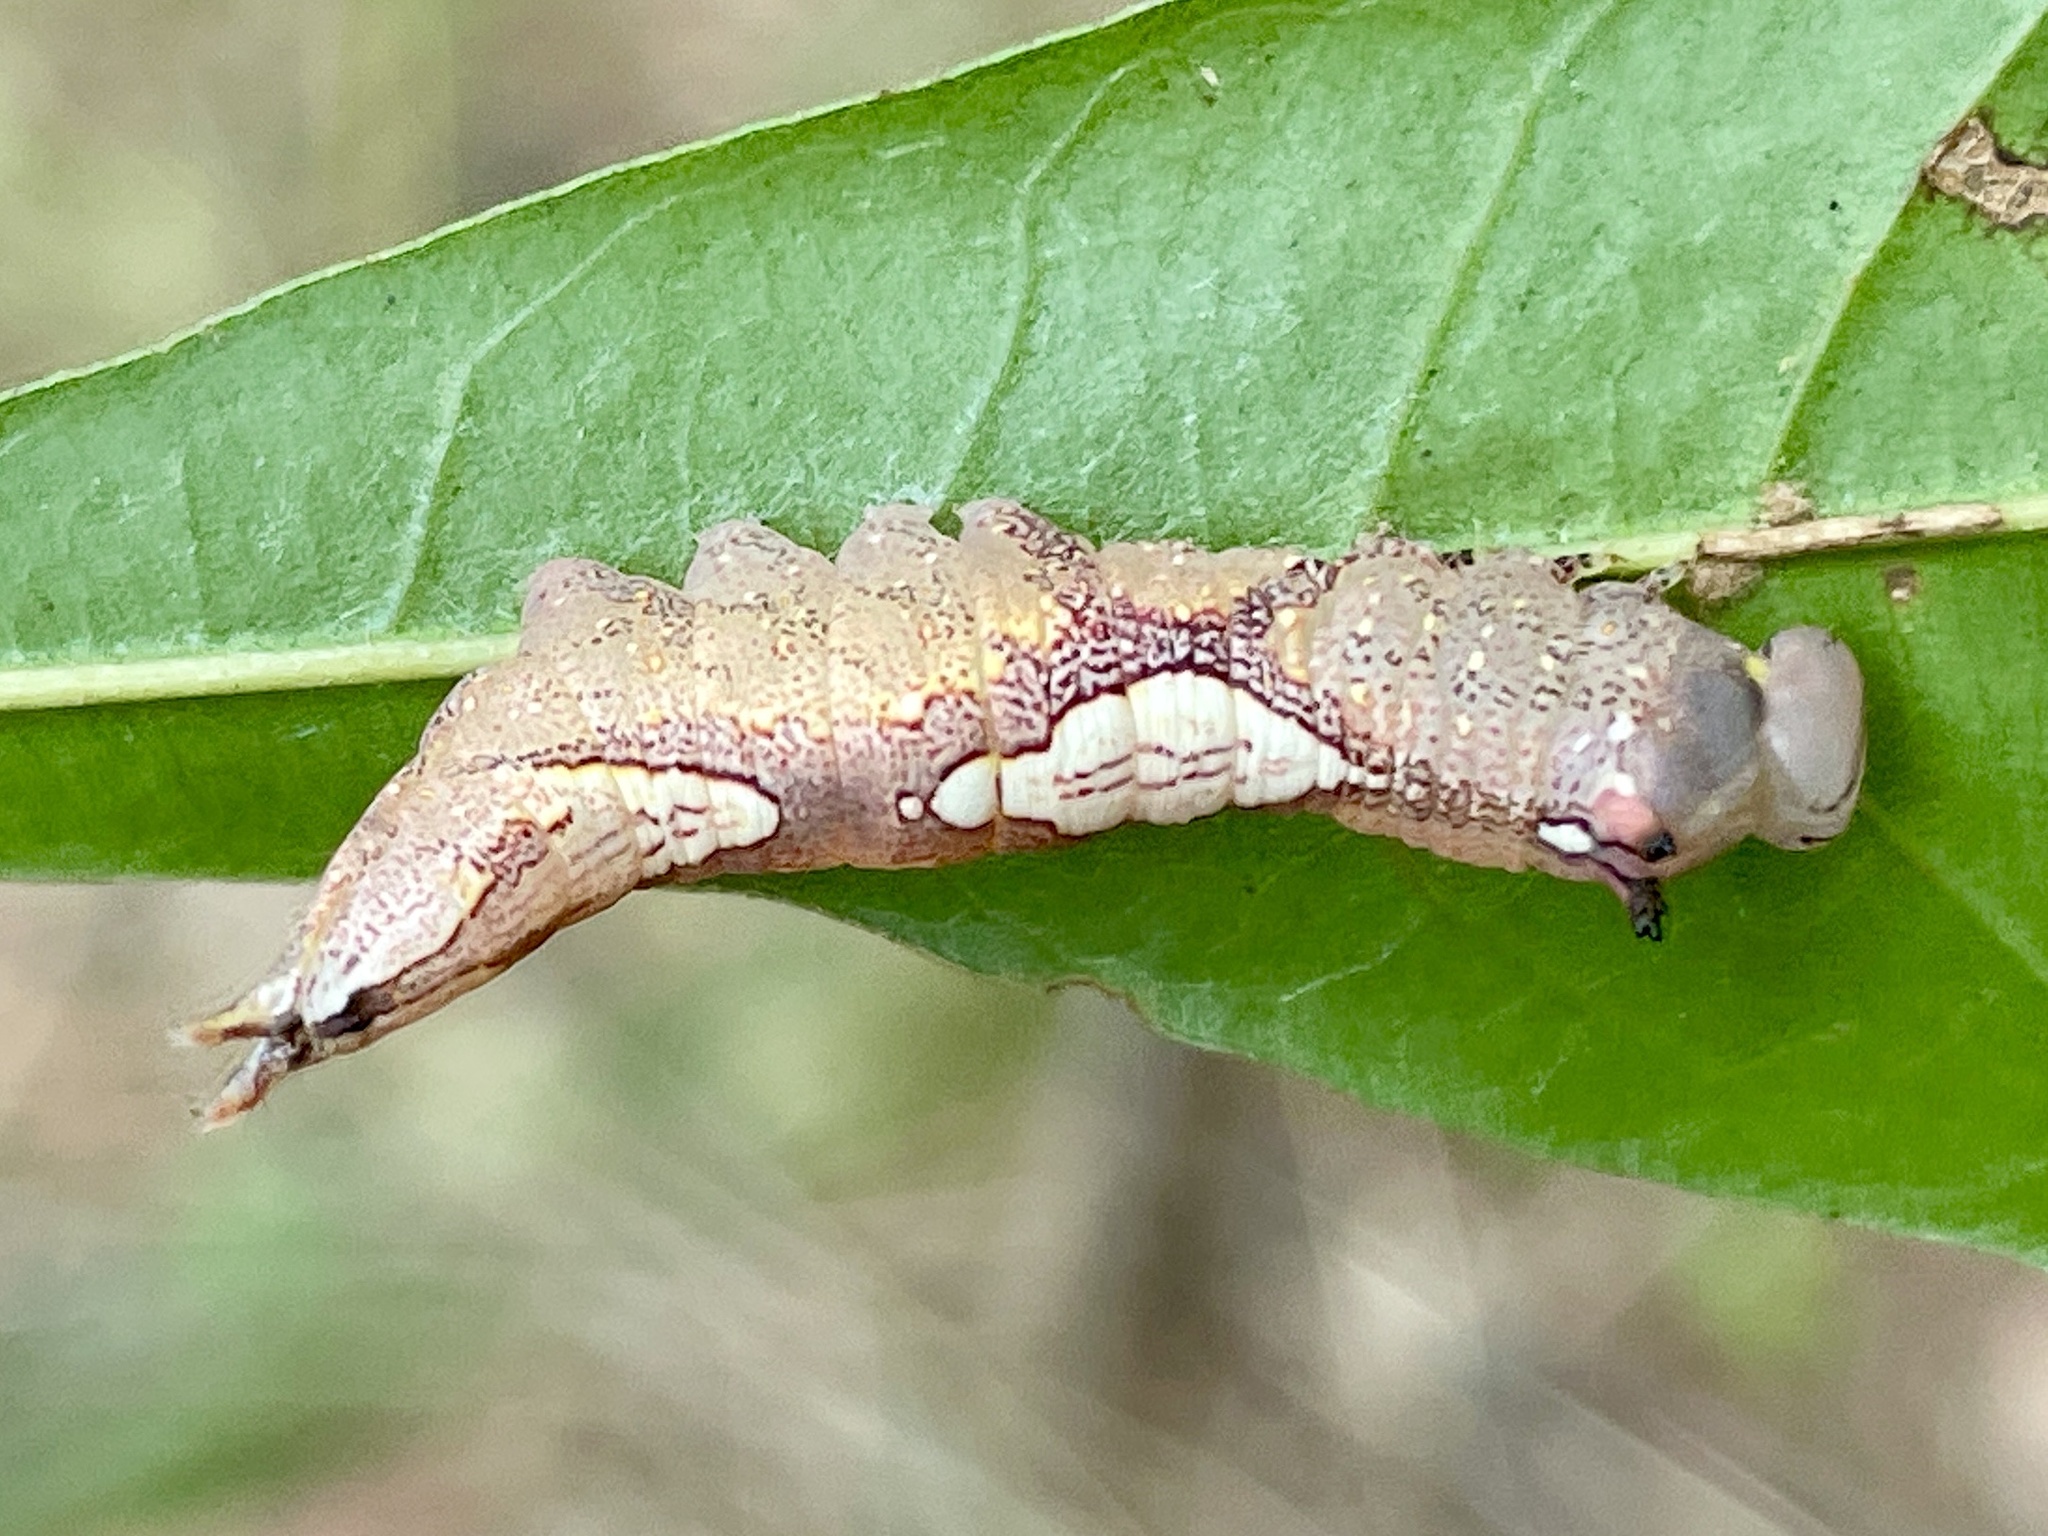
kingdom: Animalia
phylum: Arthropoda
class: Insecta
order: Lepidoptera
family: Notodontidae
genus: Heterocampa
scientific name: Heterocampa
